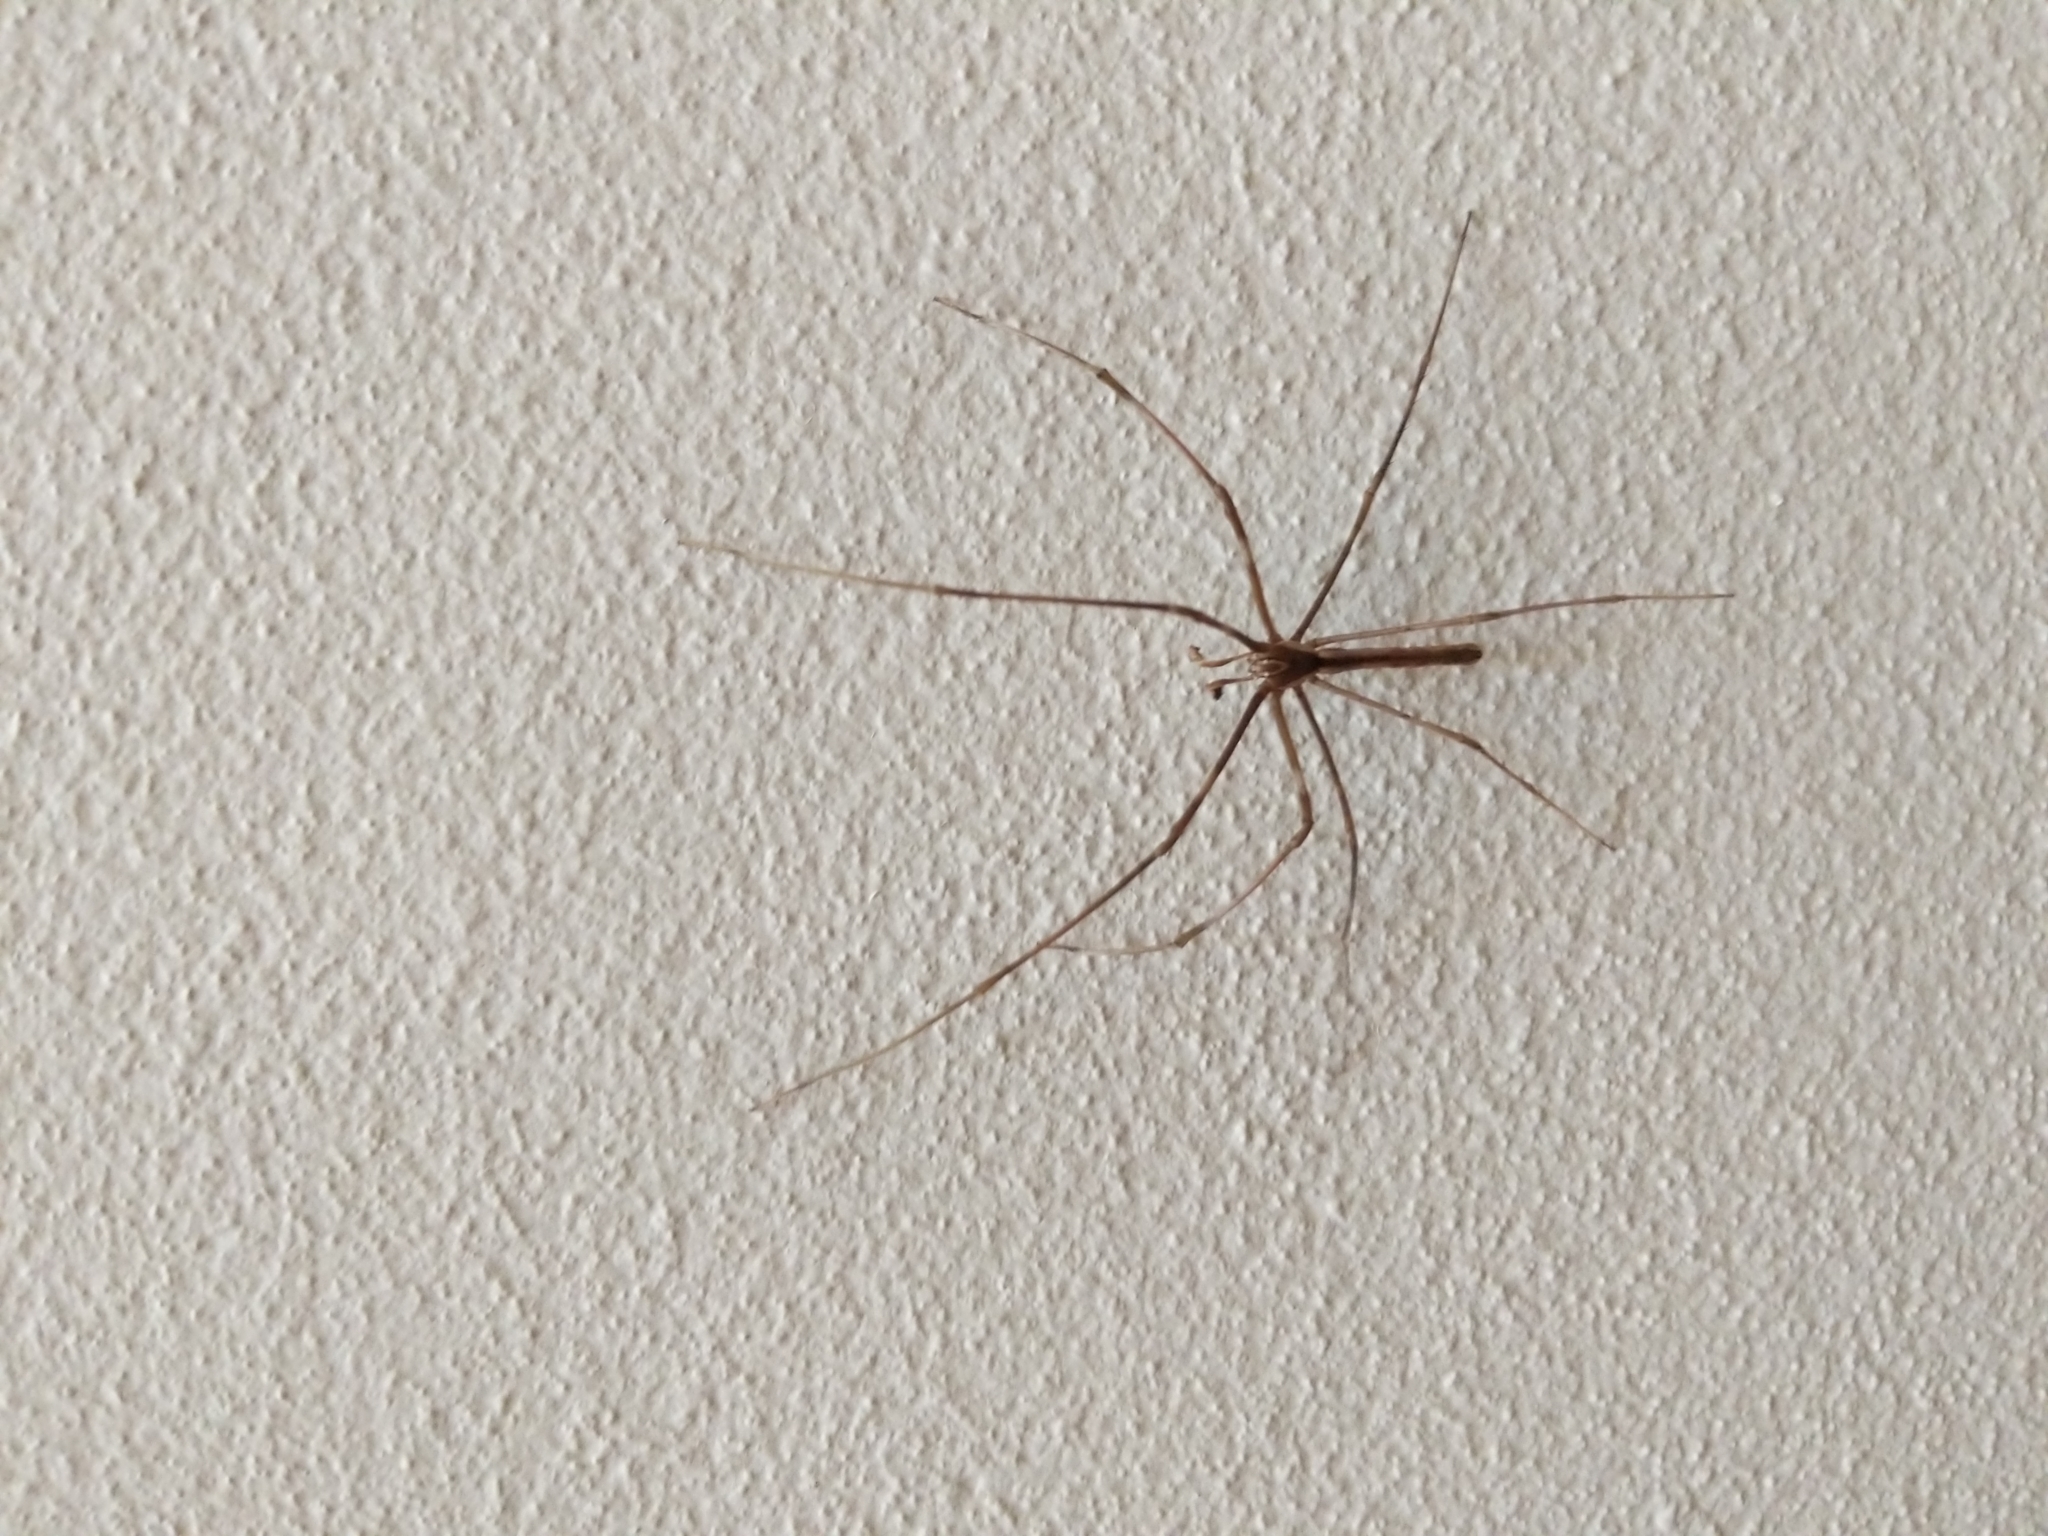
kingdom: Animalia
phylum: Arthropoda
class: Arachnida
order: Araneae
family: Deinopidae
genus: Deinopis
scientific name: Deinopis subrufa
